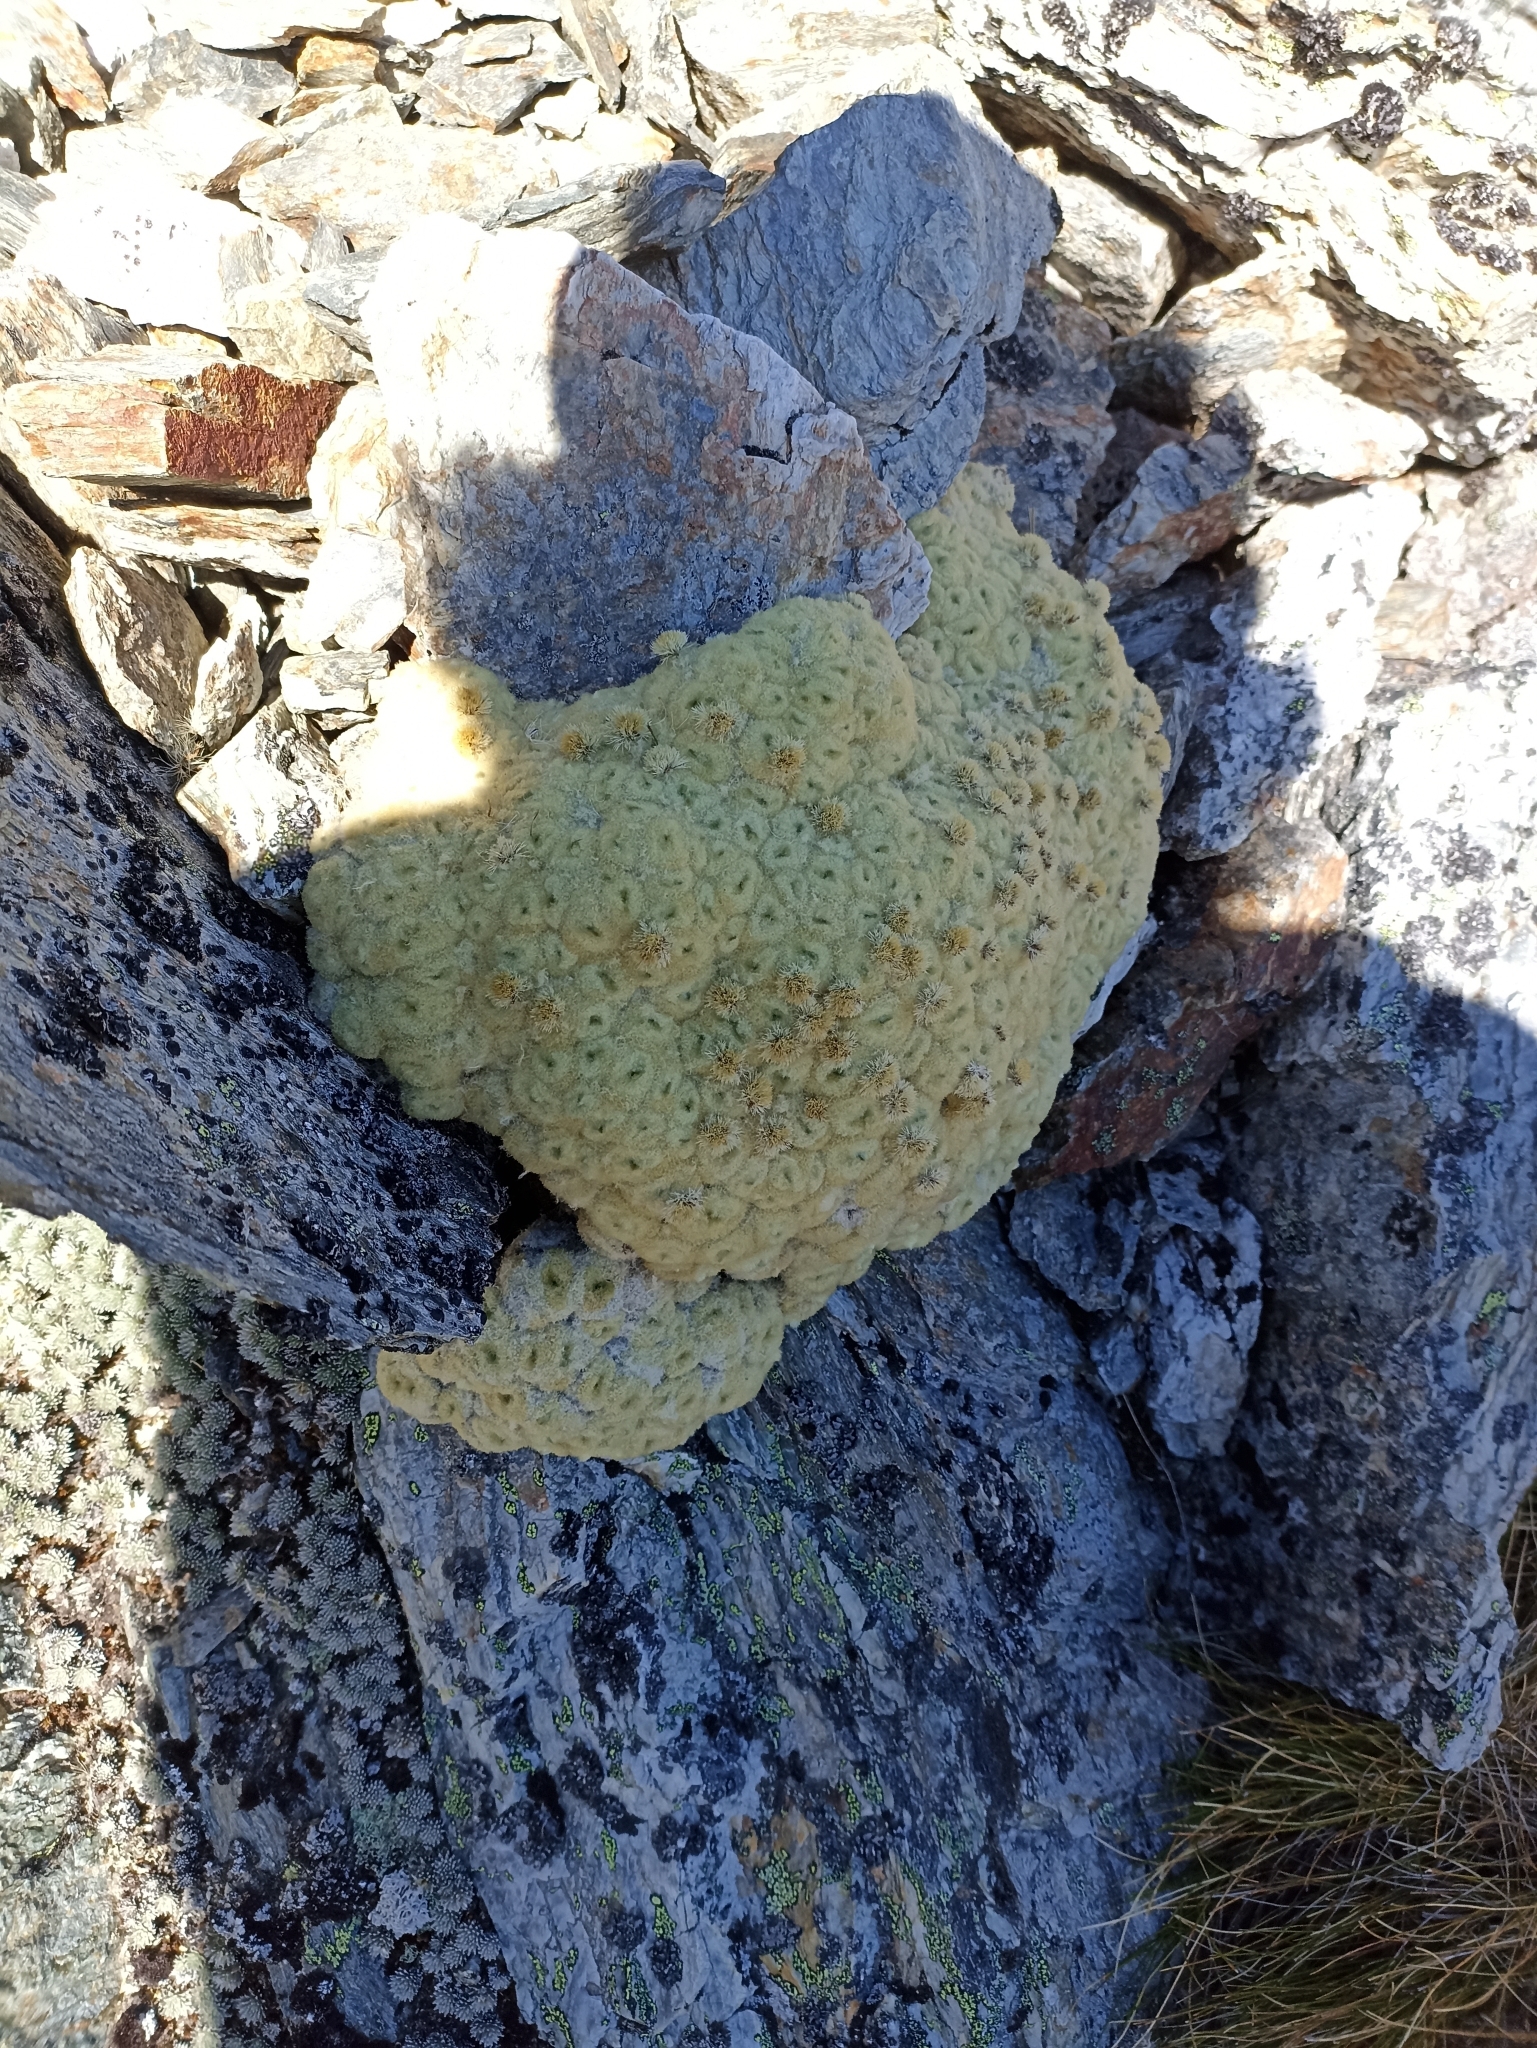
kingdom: Plantae
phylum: Tracheophyta
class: Magnoliopsida
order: Asterales
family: Asteraceae
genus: Haastia
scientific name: Haastia pulvinaris
